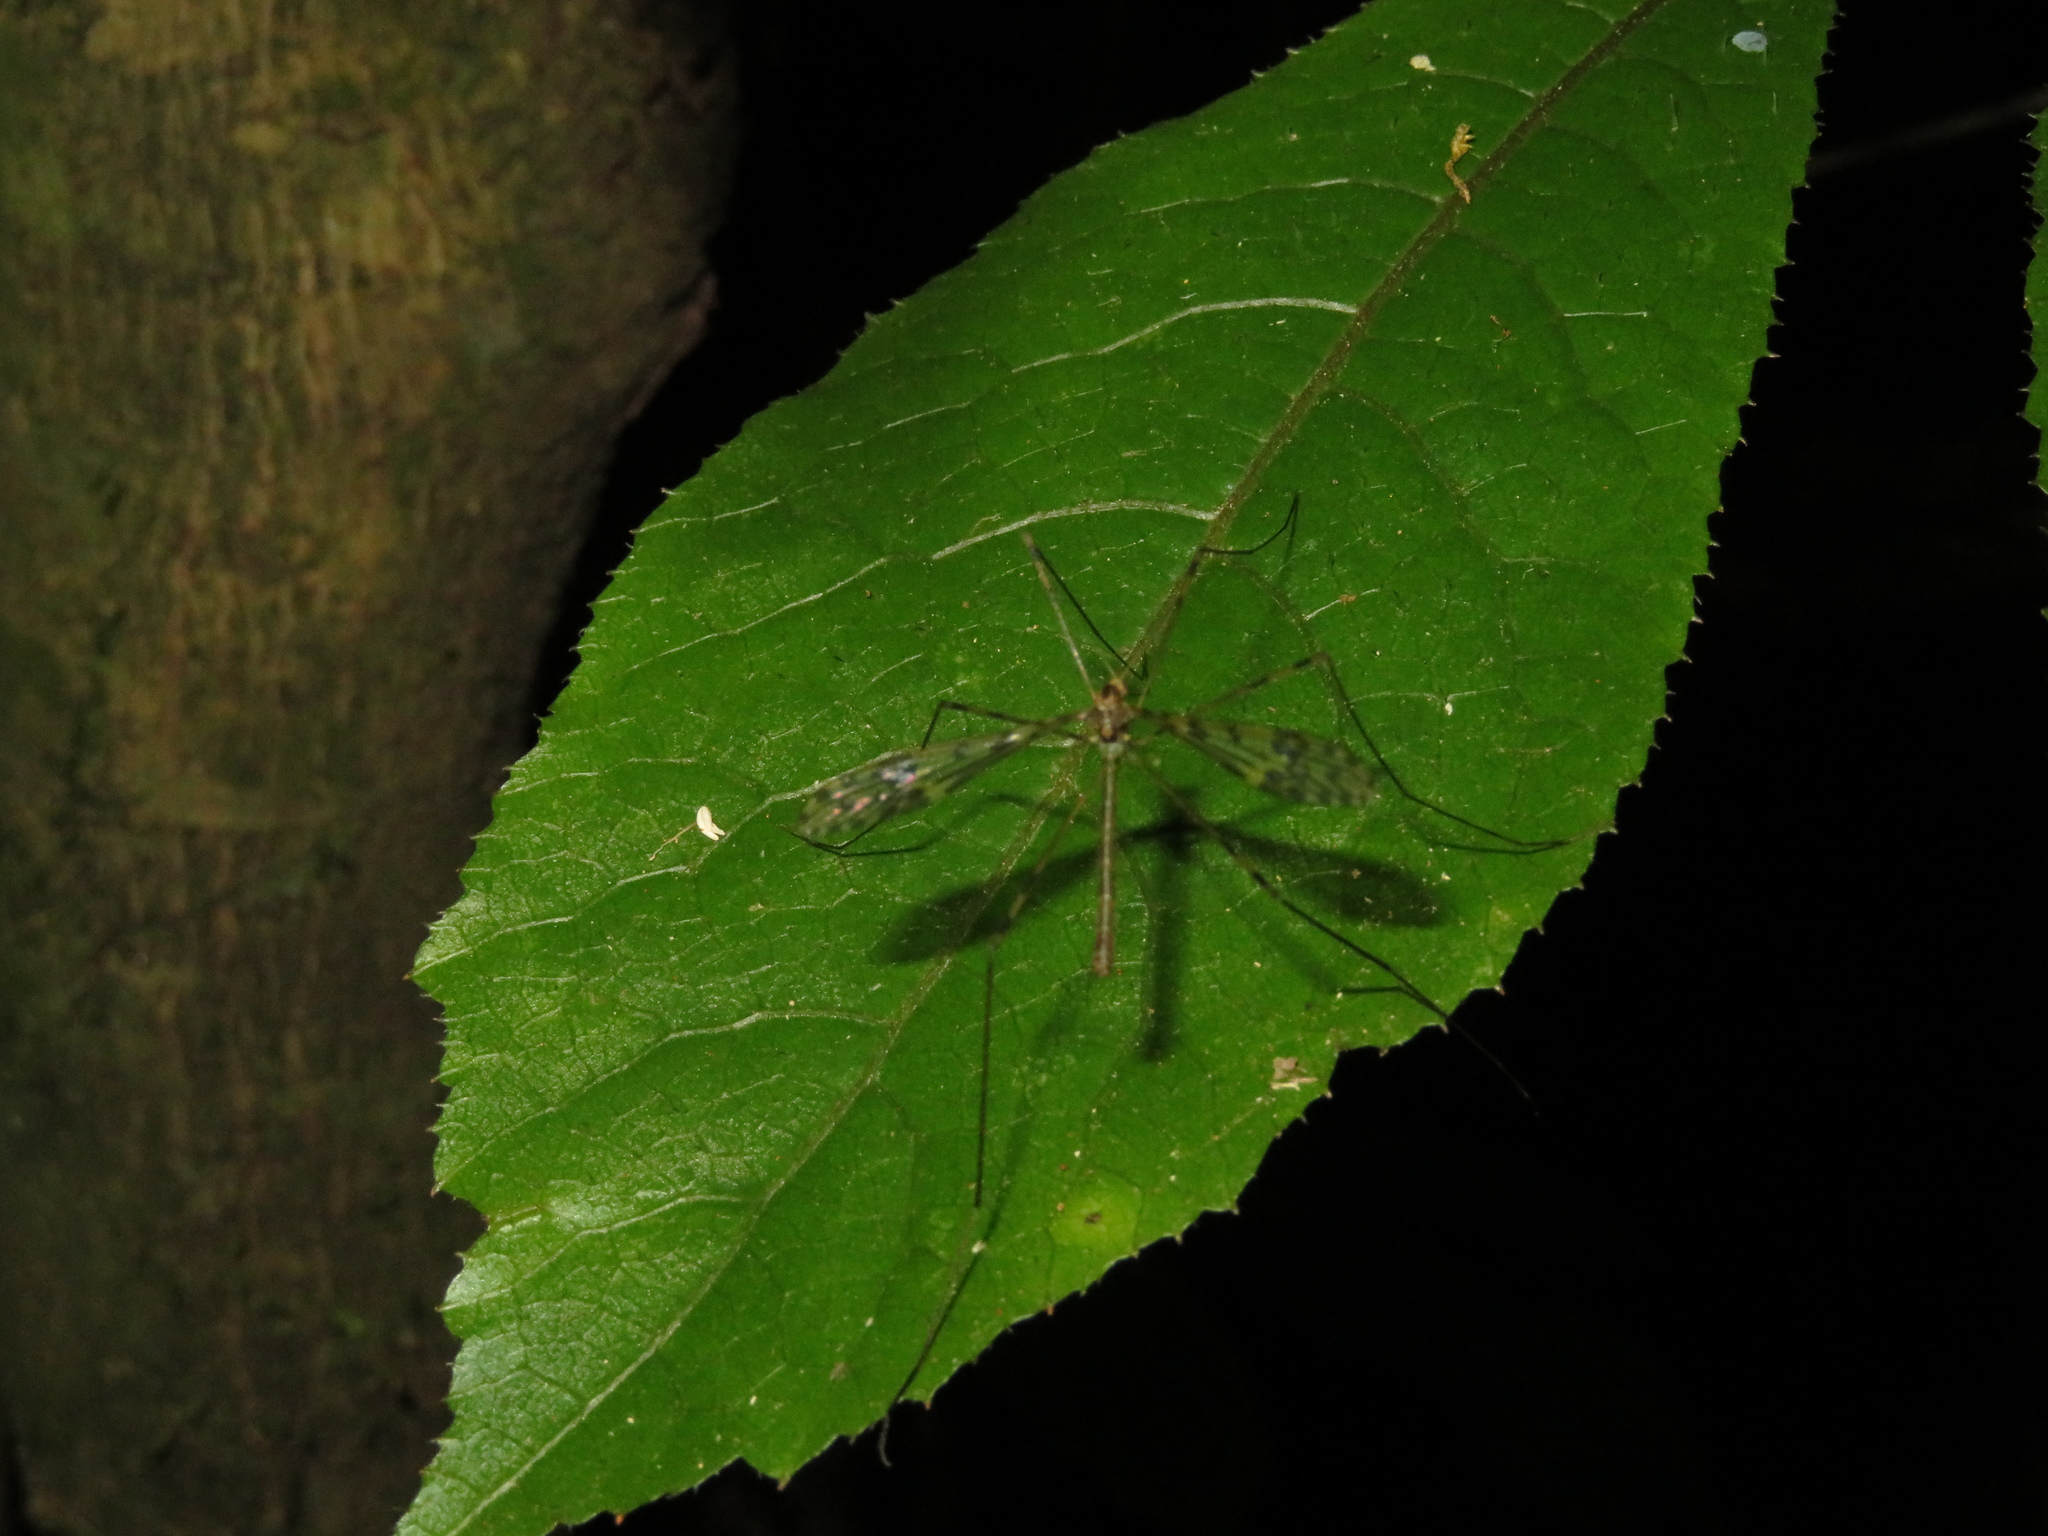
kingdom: Animalia
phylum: Arthropoda
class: Insecta
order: Diptera
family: Limoniidae
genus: Austrolimnophila
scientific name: Austrolimnophila obliquata
